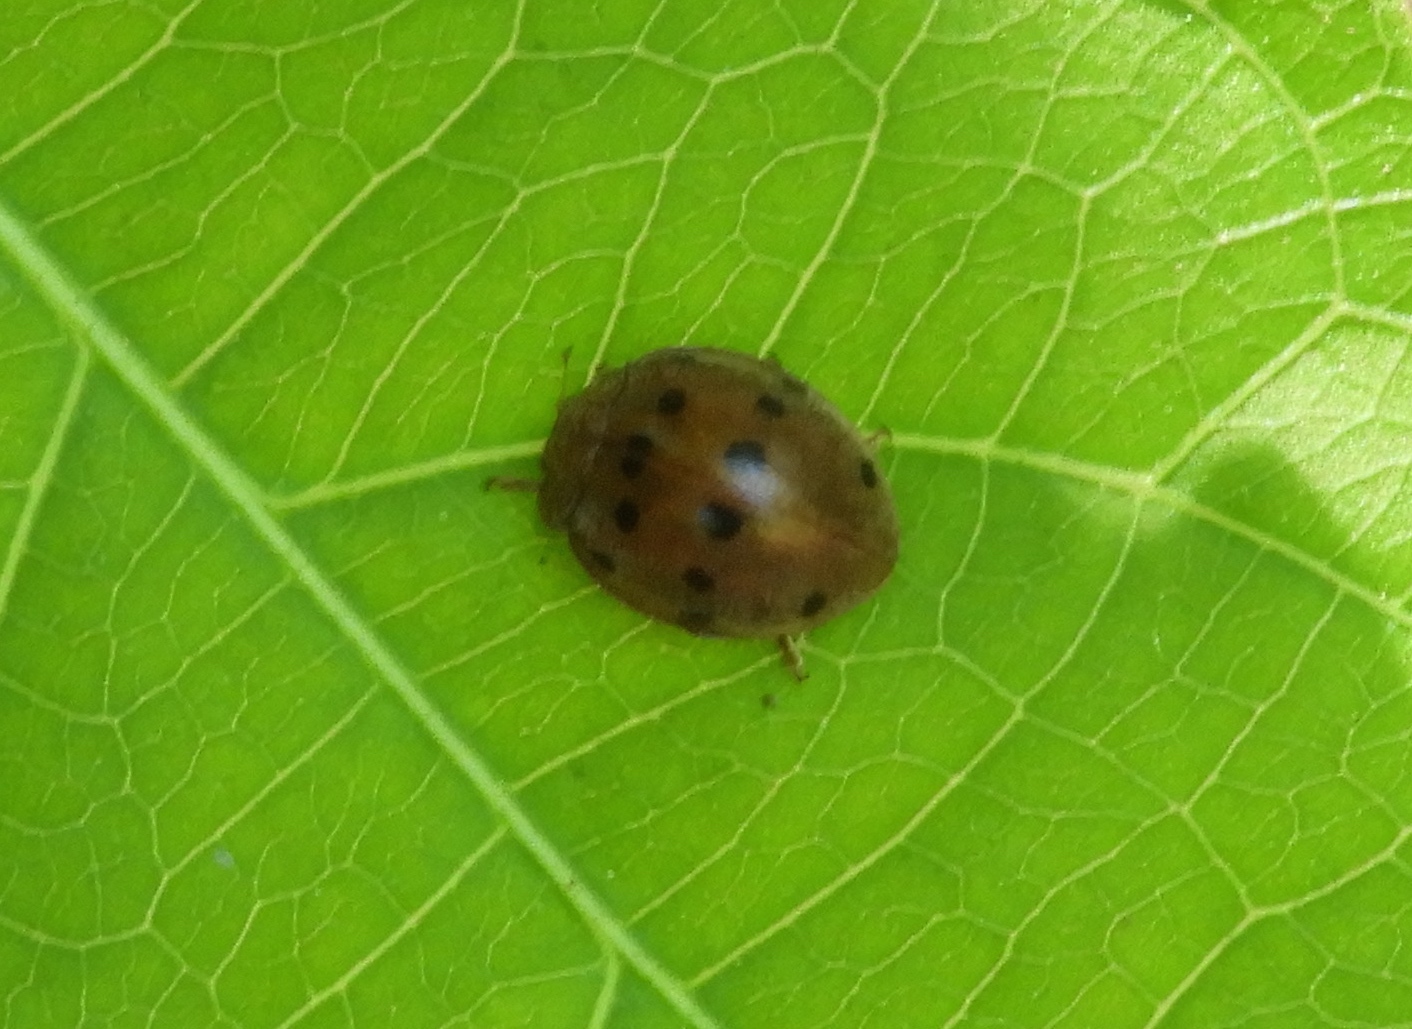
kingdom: Animalia
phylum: Arthropoda
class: Insecta
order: Coleoptera
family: Coccinellidae
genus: Epilachna
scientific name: Epilachna tredecimnotata
